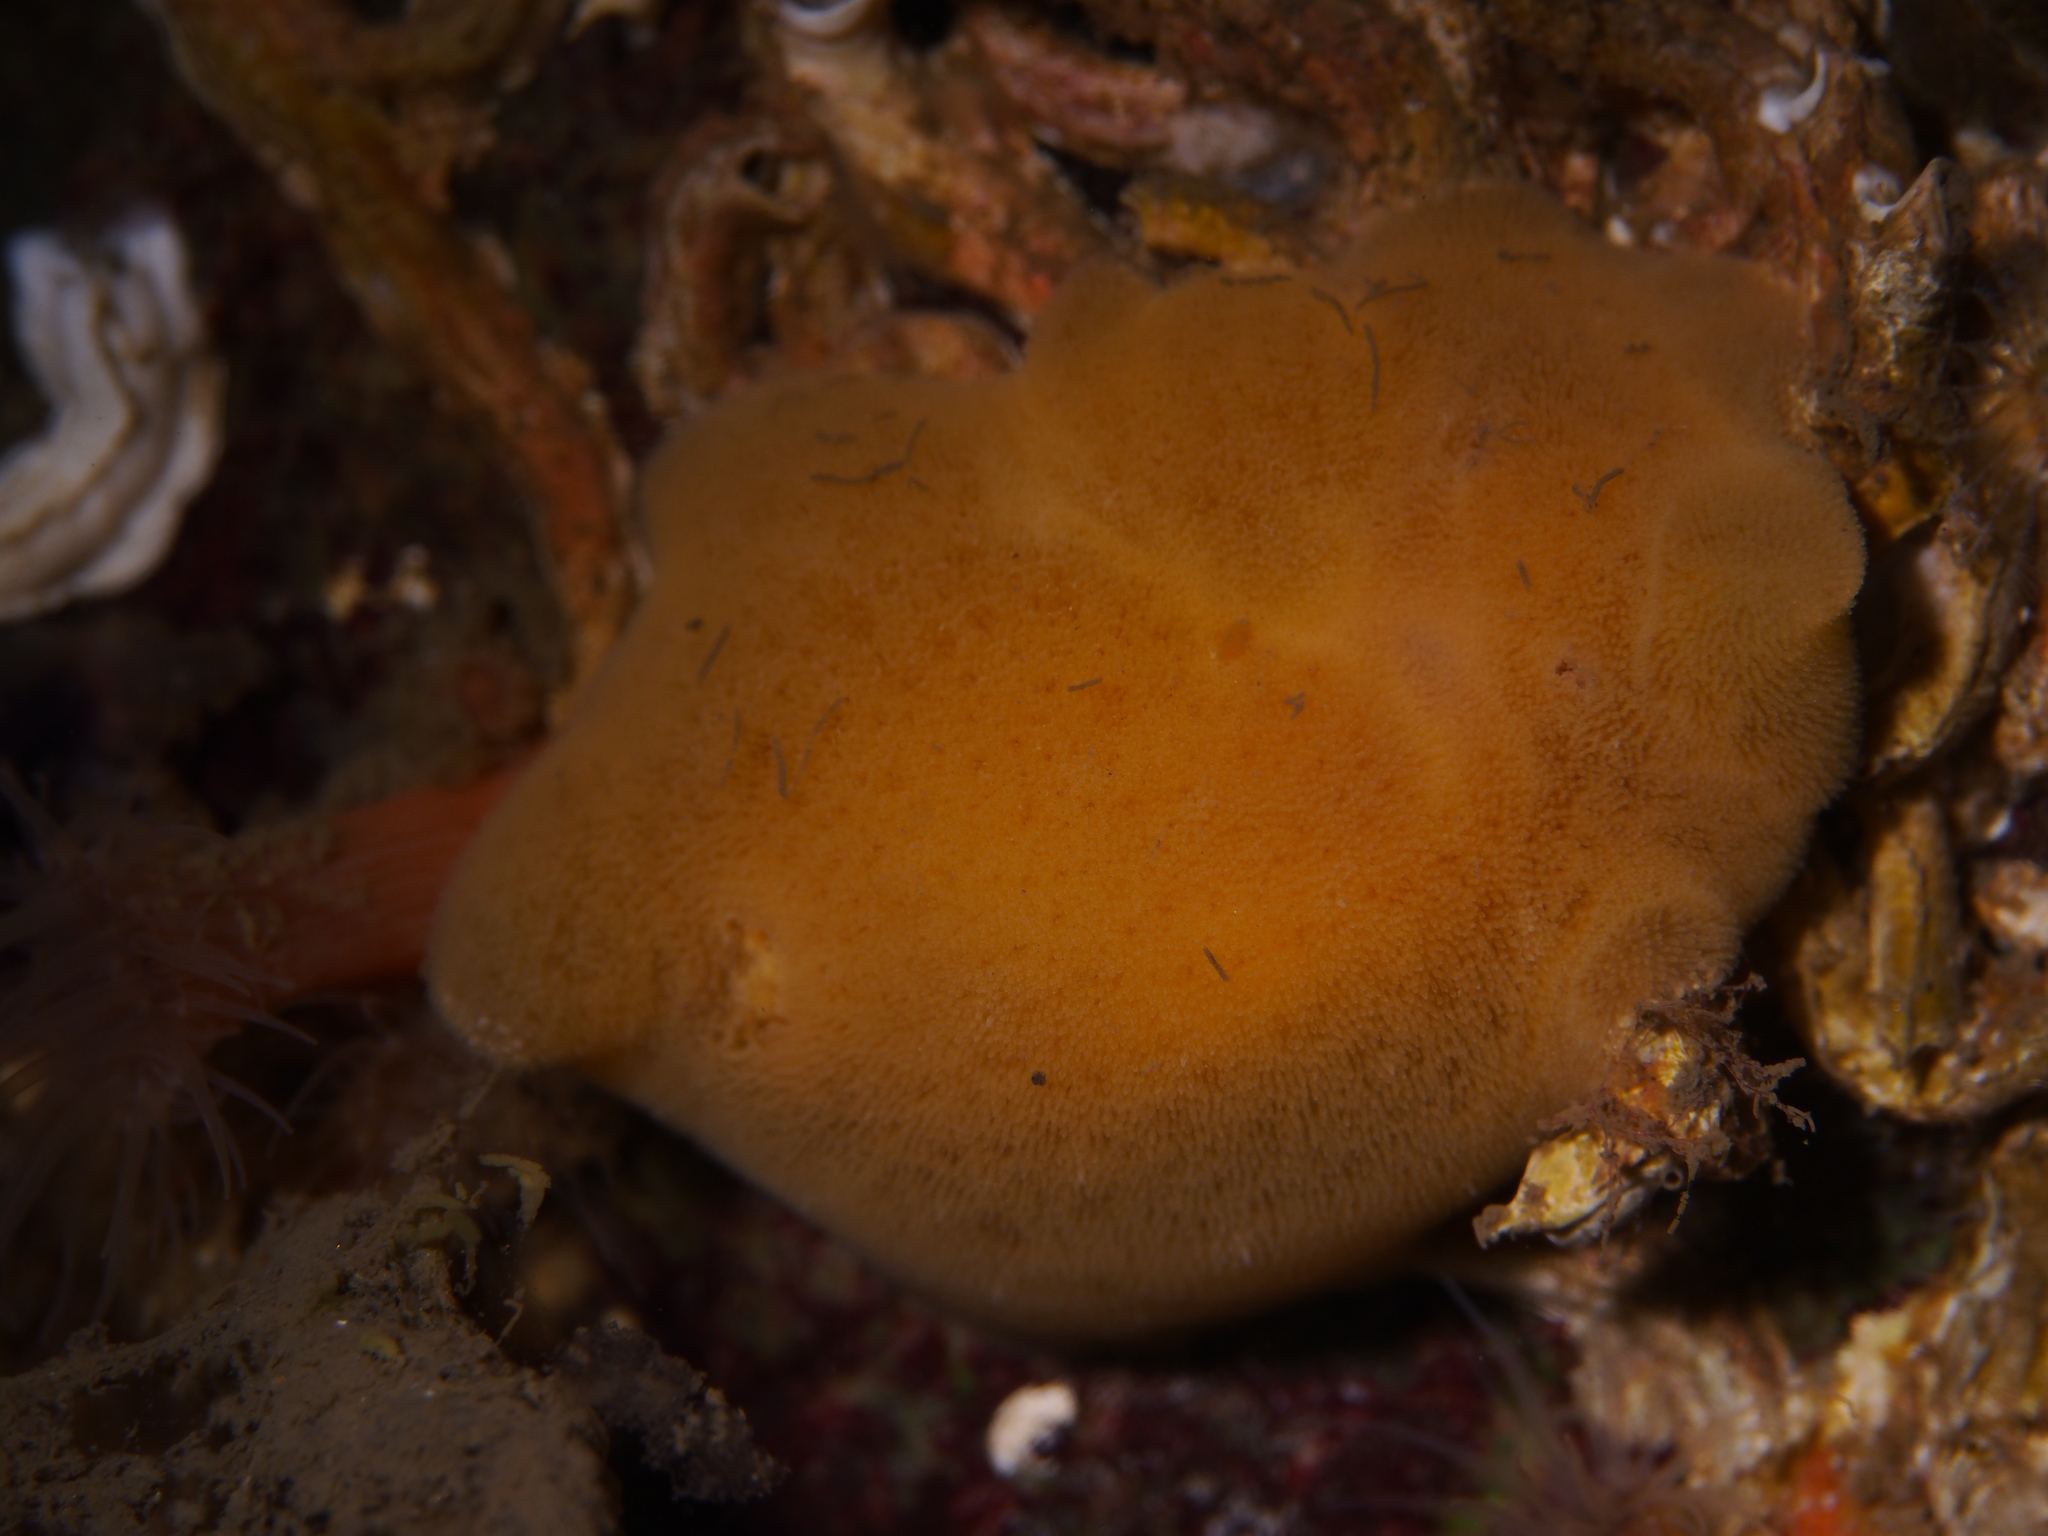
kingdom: Animalia
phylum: Mollusca
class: Gastropoda
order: Nudibranchia
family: Discodorididae
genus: Jorunna
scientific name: Jorunna tomentosa
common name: Grey sea slug
